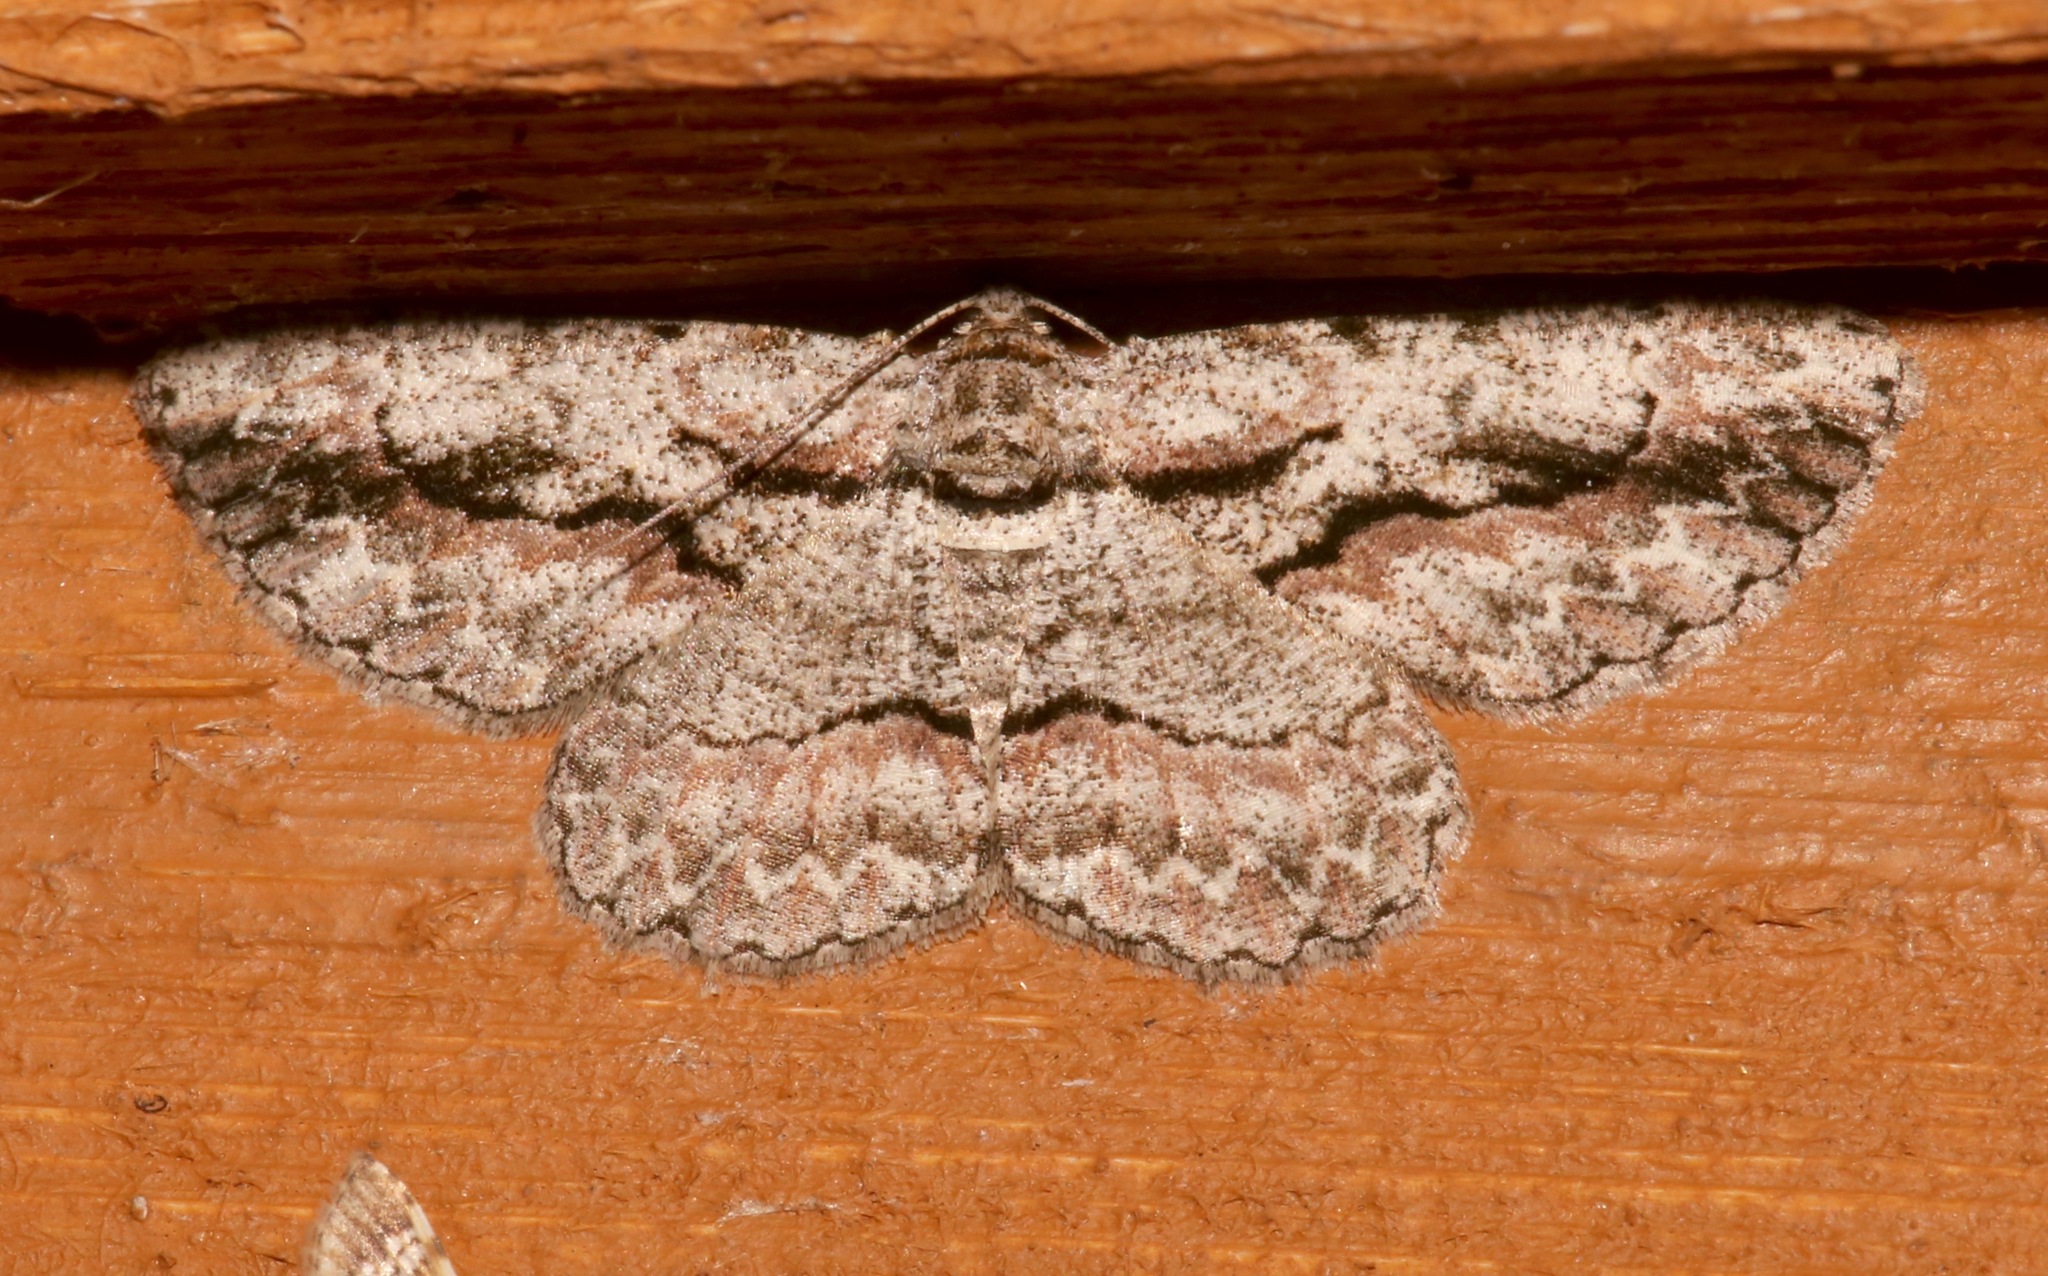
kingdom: Animalia
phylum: Arthropoda
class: Insecta
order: Lepidoptera
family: Geometridae
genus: Anavitrinella
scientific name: Anavitrinella pampinaria
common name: Common gray
